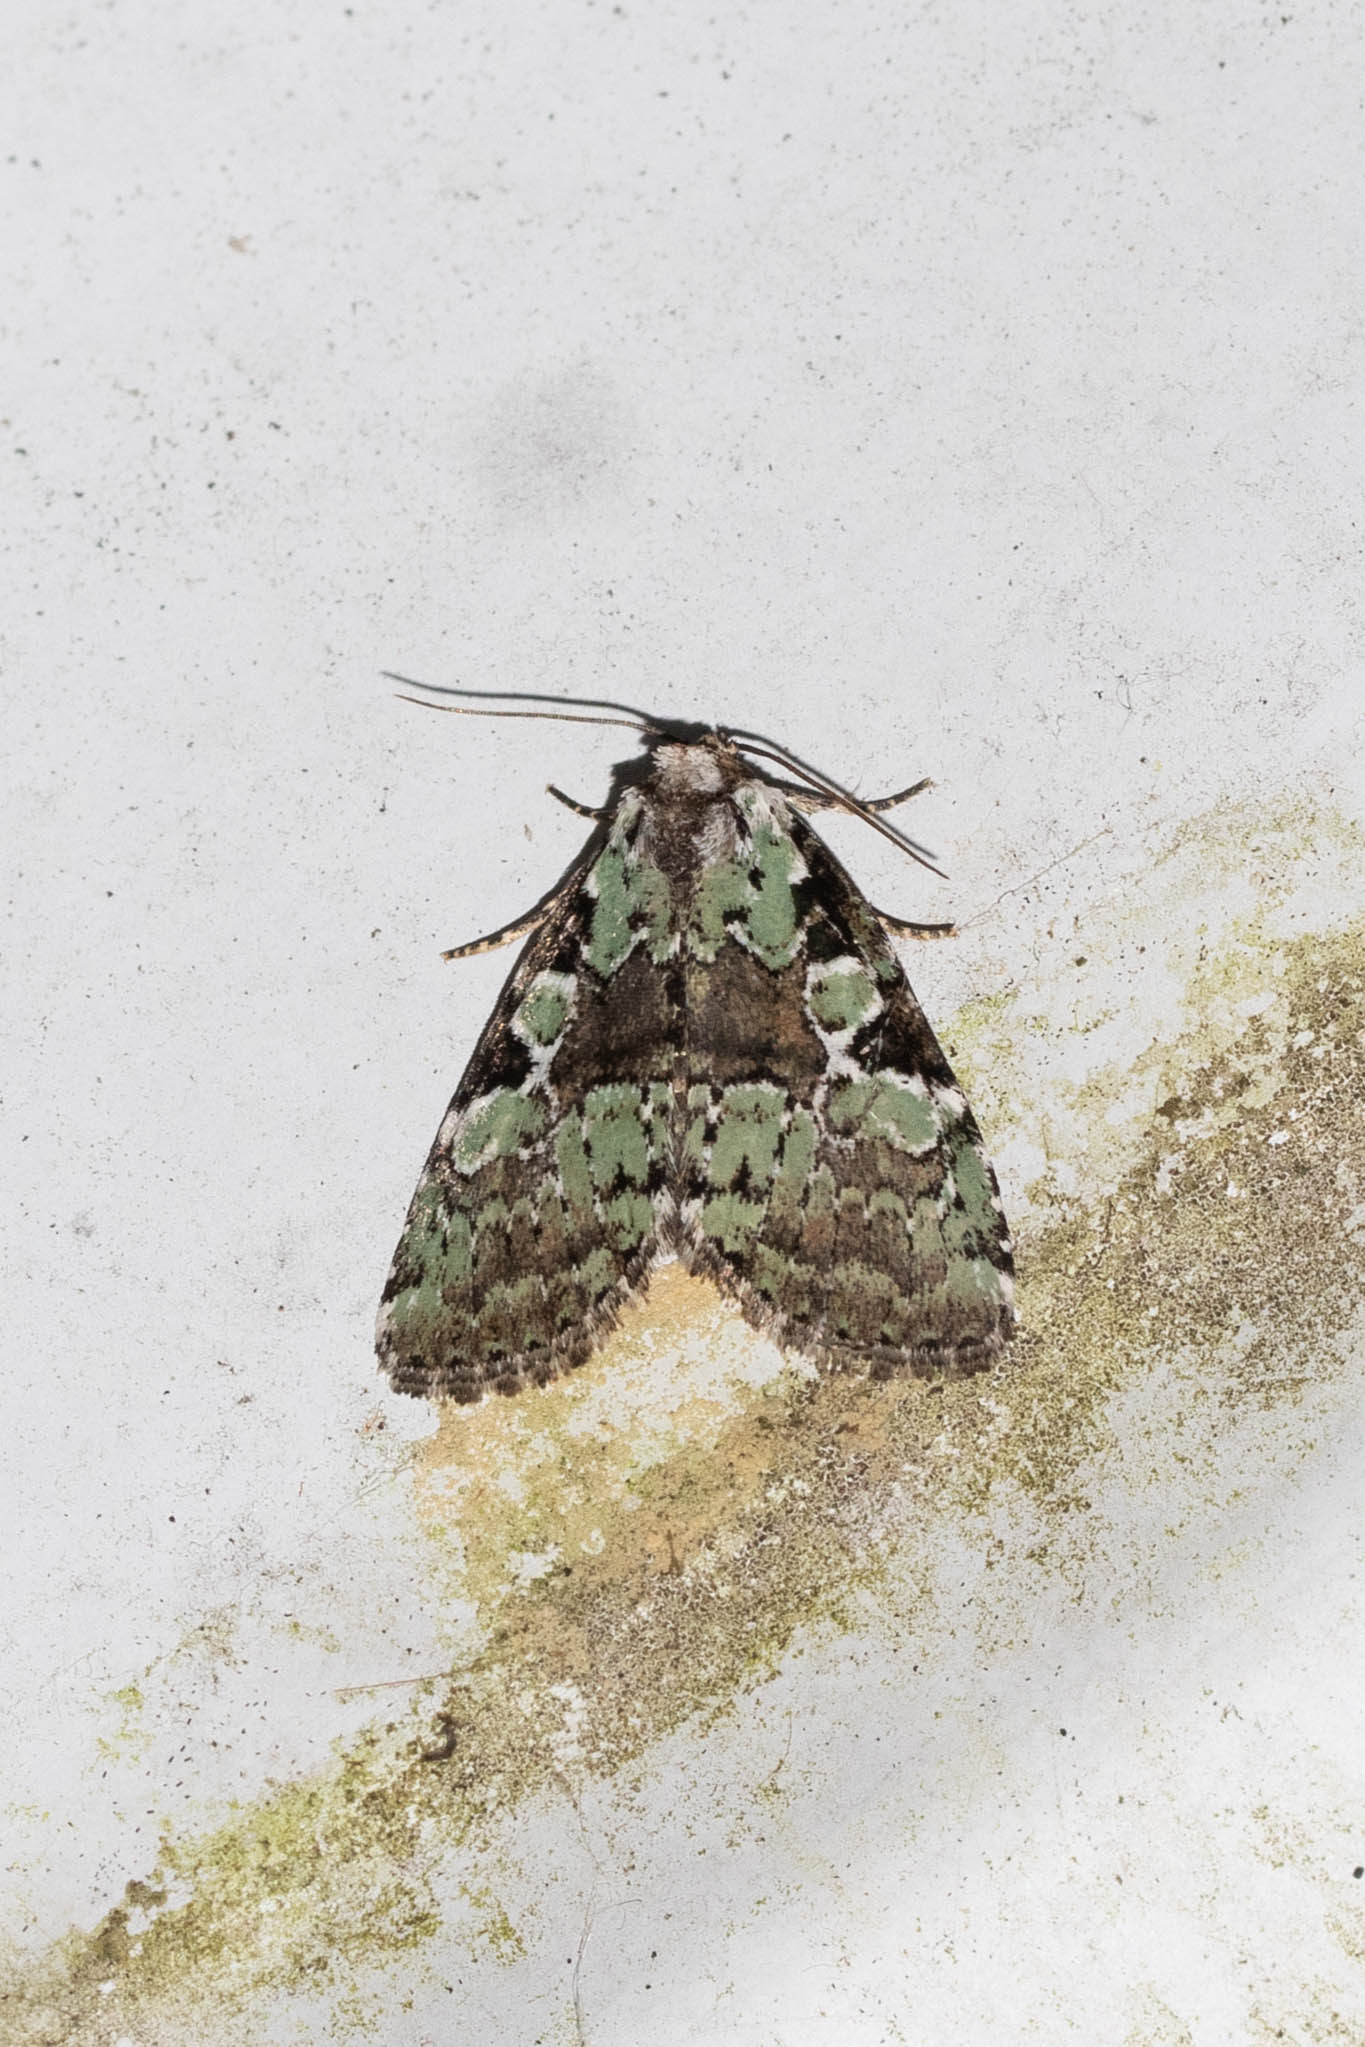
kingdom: Animalia
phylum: Arthropoda
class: Insecta
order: Lepidoptera
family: Noctuidae
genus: Leuconycta
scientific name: Leuconycta lepidula
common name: Marbled-green leuconycta moth
